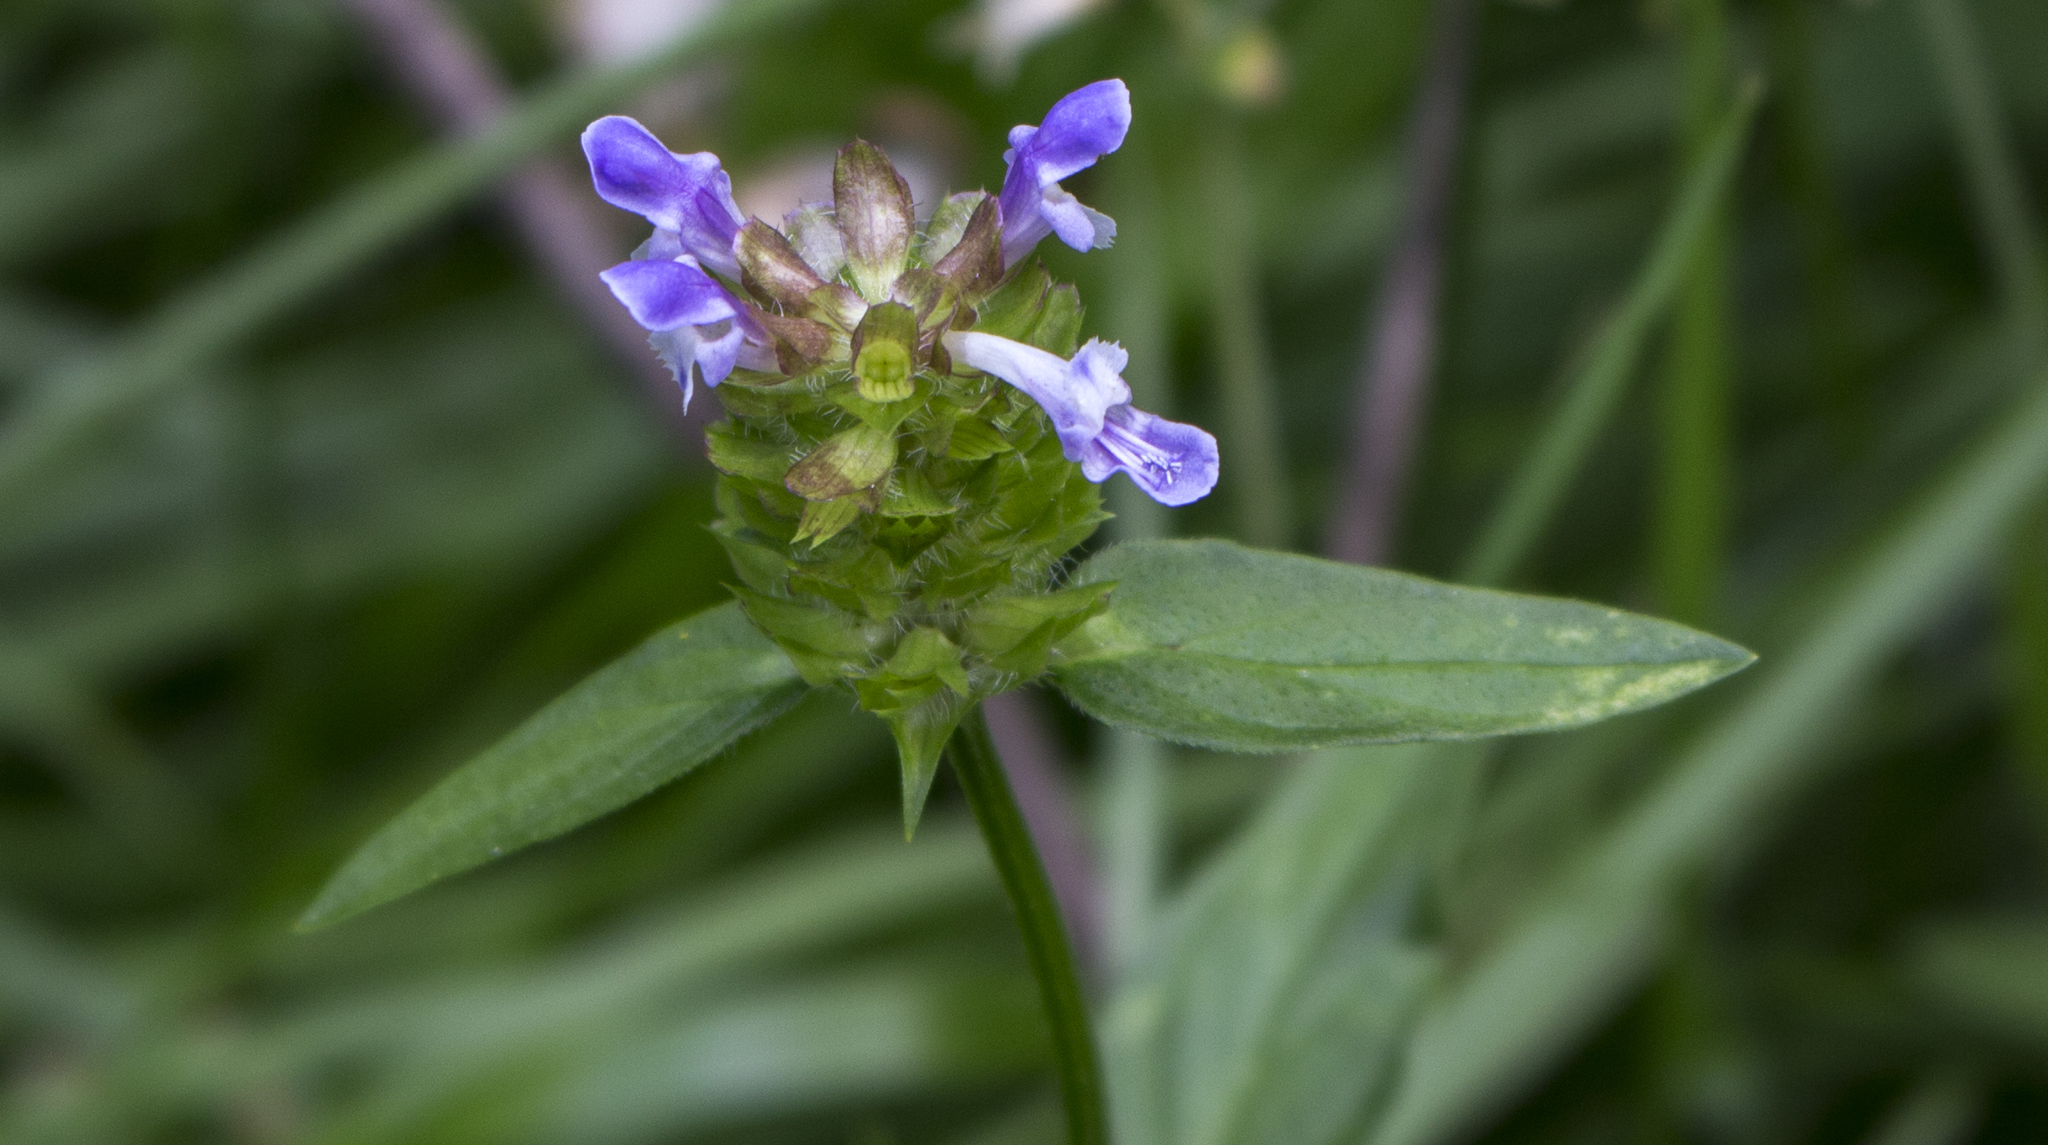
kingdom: Plantae
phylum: Tracheophyta
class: Magnoliopsida
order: Lamiales
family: Lamiaceae
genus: Prunella
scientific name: Prunella vulgaris
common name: Heal-all
